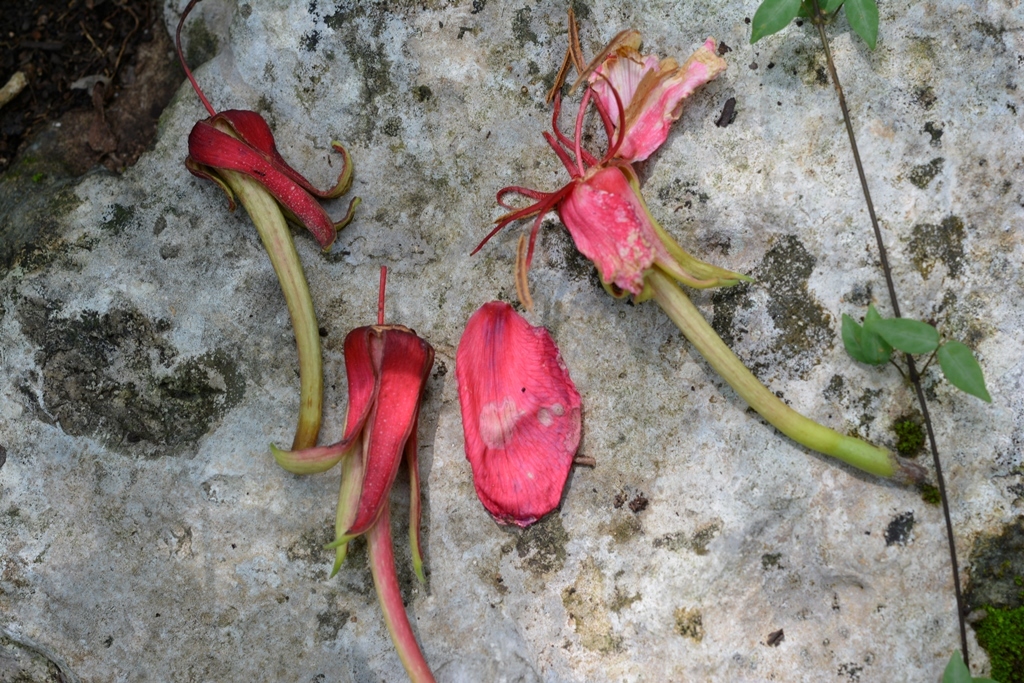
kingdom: Plantae
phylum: Tracheophyta
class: Magnoliopsida
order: Myrtales
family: Onagraceae
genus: Hauya
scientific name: Hauya elegans
